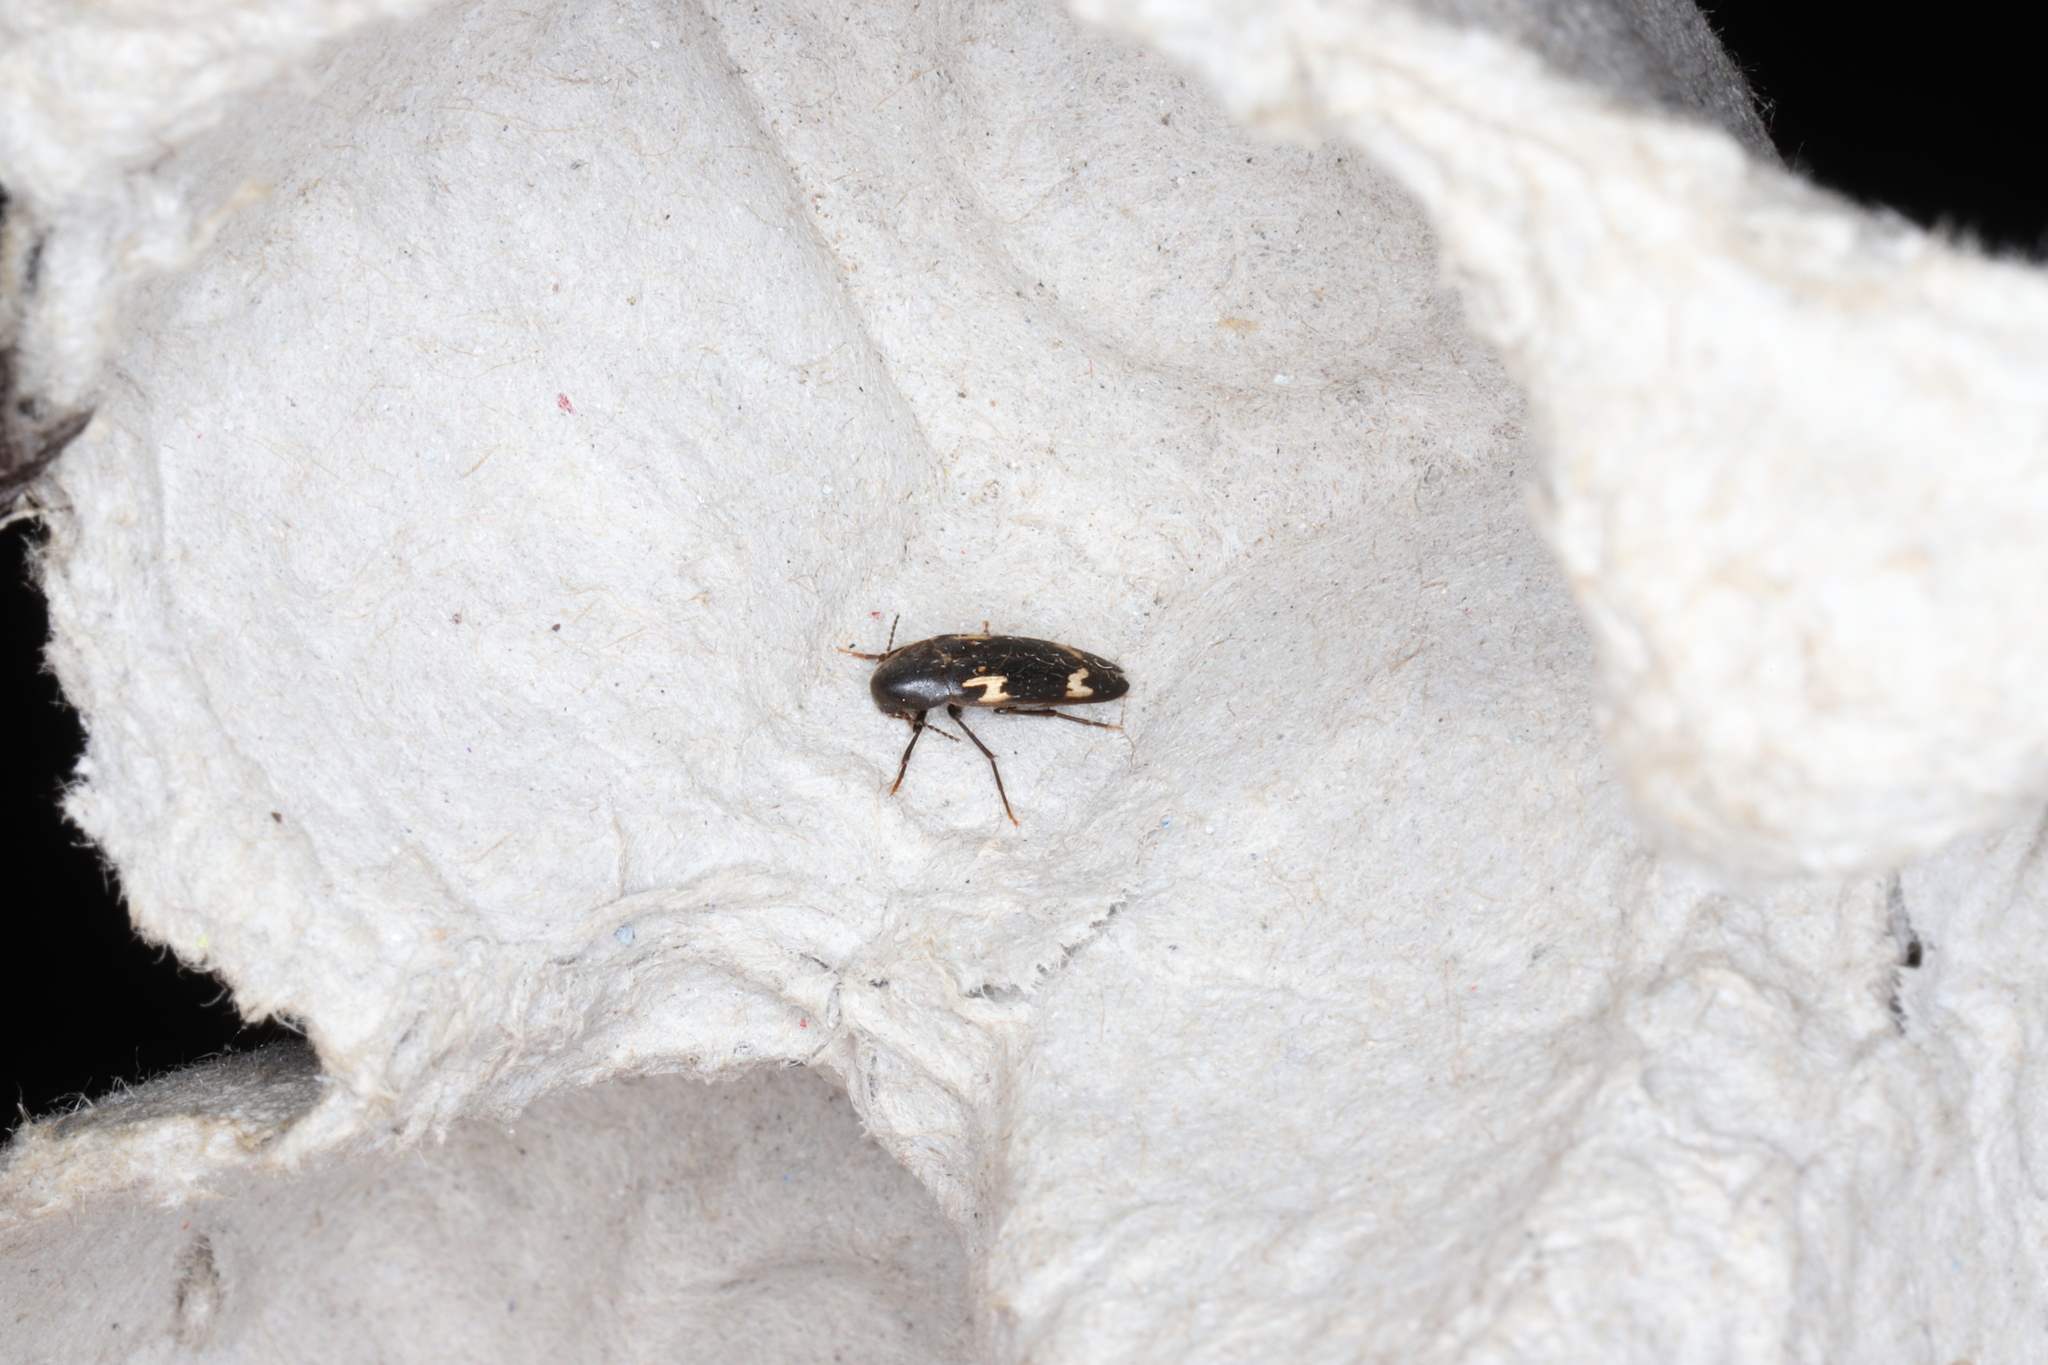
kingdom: Animalia
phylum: Arthropoda
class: Insecta
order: Coleoptera
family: Melandryidae
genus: Dircaea
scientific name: Dircaea liturata
